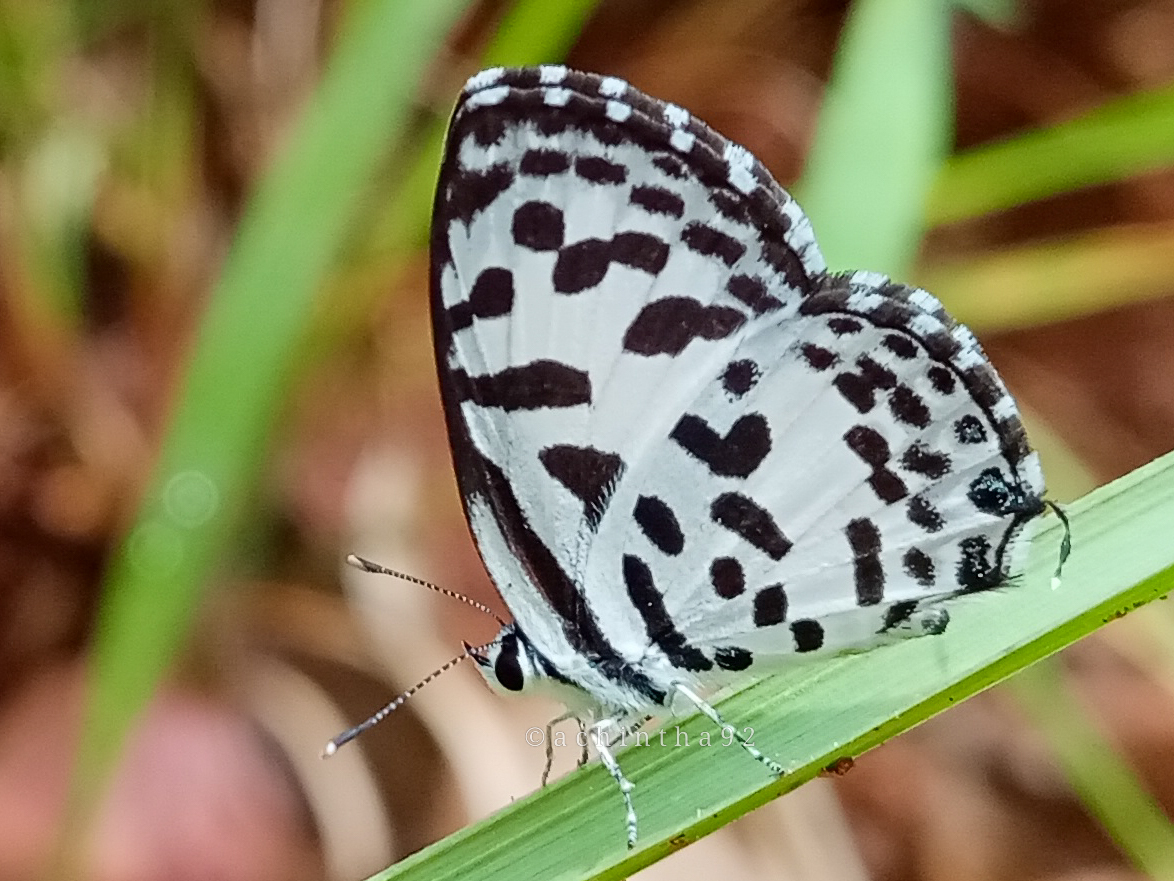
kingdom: Animalia
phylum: Arthropoda
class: Insecta
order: Lepidoptera
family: Lycaenidae
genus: Castalius
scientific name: Castalius rosimon
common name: Common pierrot
